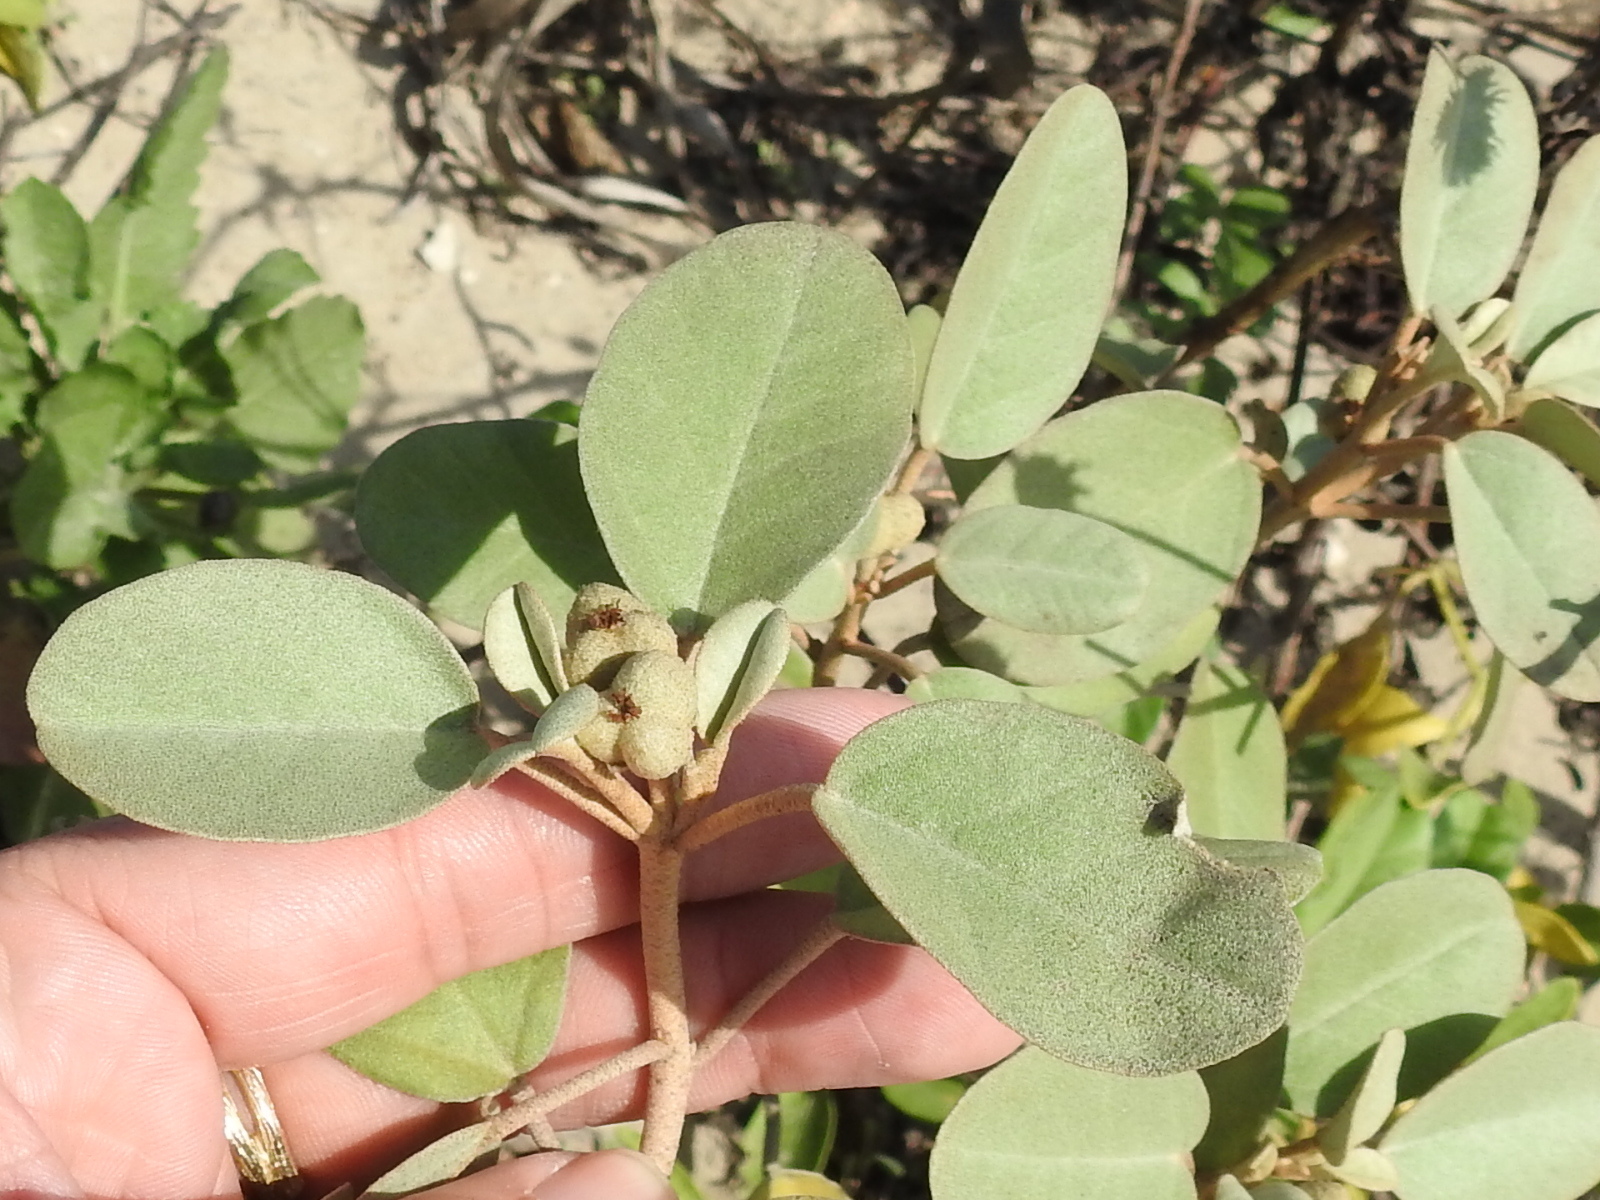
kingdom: Plantae
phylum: Tracheophyta
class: Magnoliopsida
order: Malpighiales
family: Euphorbiaceae
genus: Croton
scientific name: Croton punctatus
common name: Beach-tea
